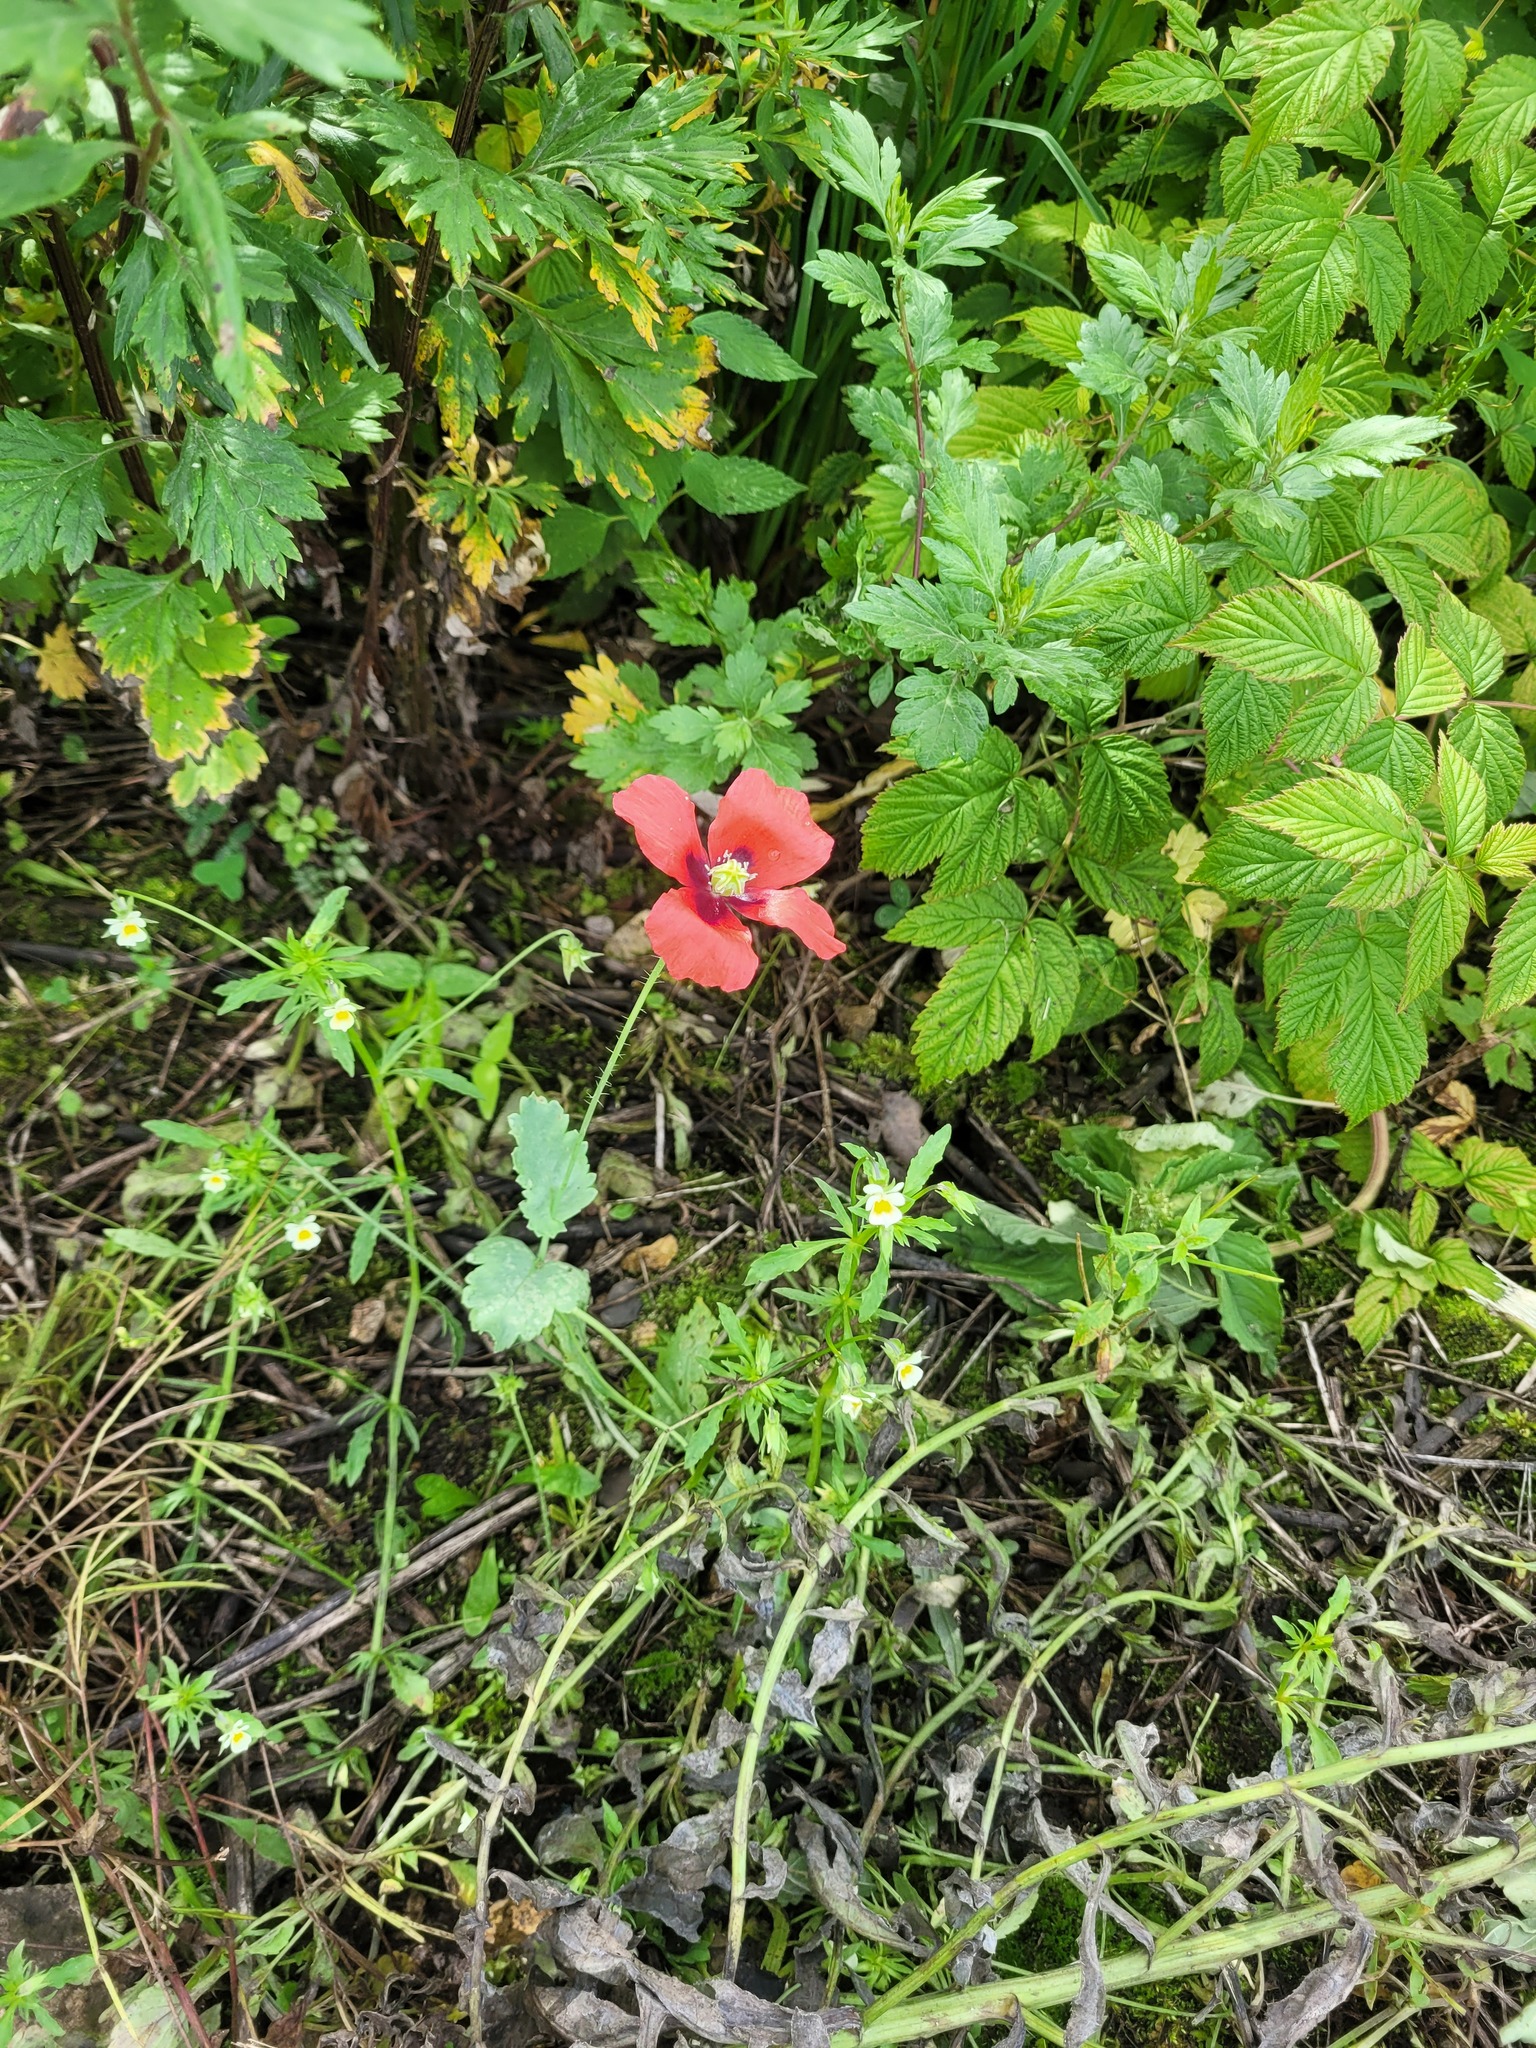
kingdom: Plantae
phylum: Tracheophyta
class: Magnoliopsida
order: Ranunculales
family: Papaveraceae
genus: Papaver
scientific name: Papaver somniferum
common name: Opium poppy
